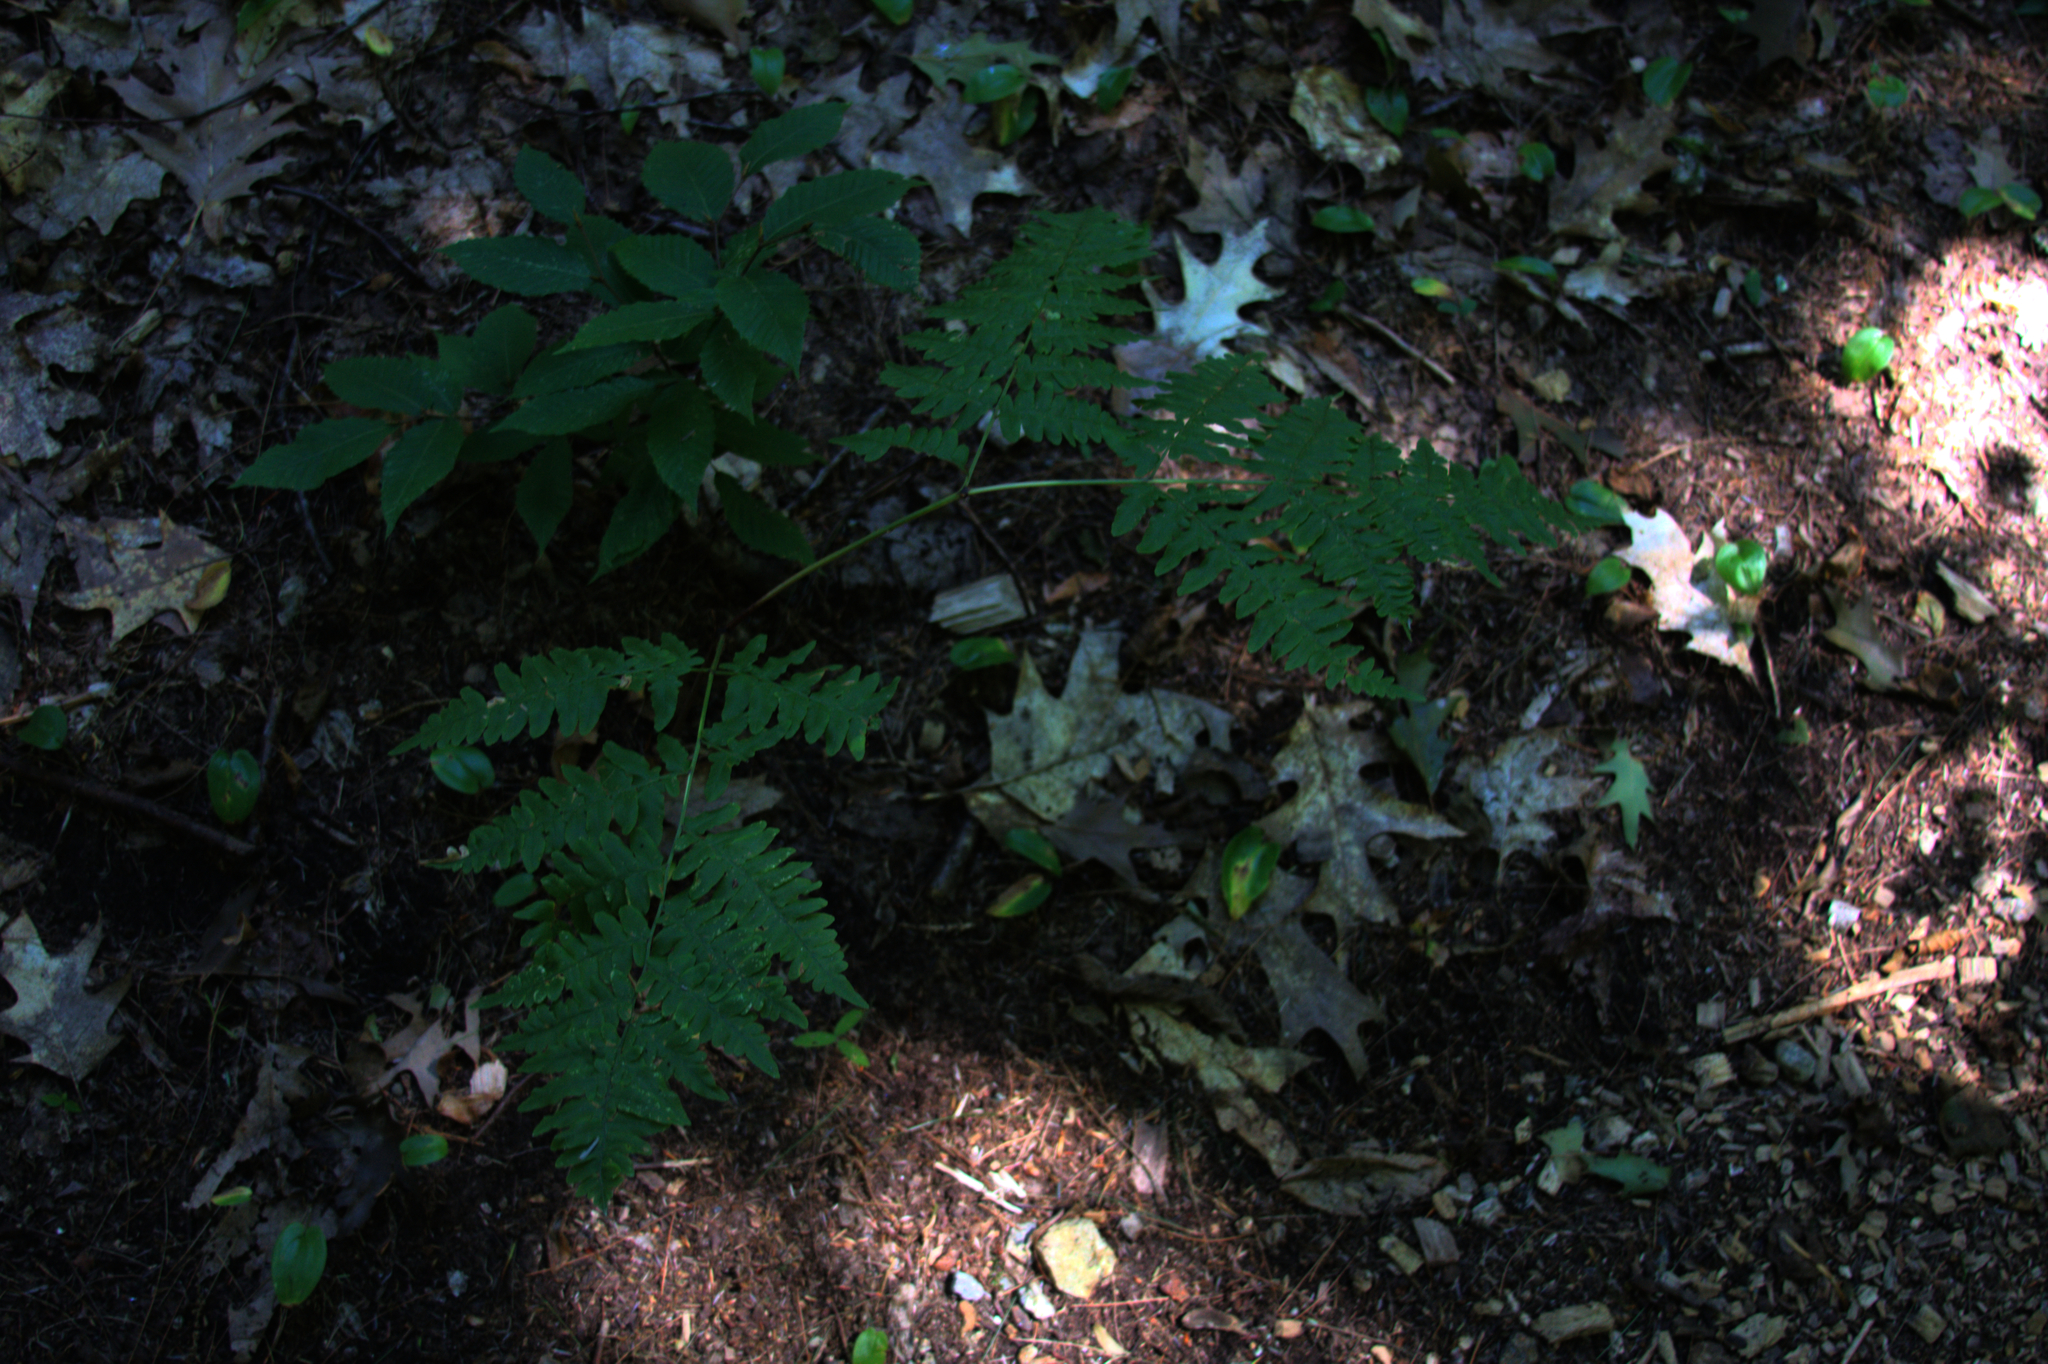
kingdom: Plantae
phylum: Tracheophyta
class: Magnoliopsida
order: Fagales
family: Fagaceae
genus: Fagus
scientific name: Fagus grandifolia
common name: American beech
